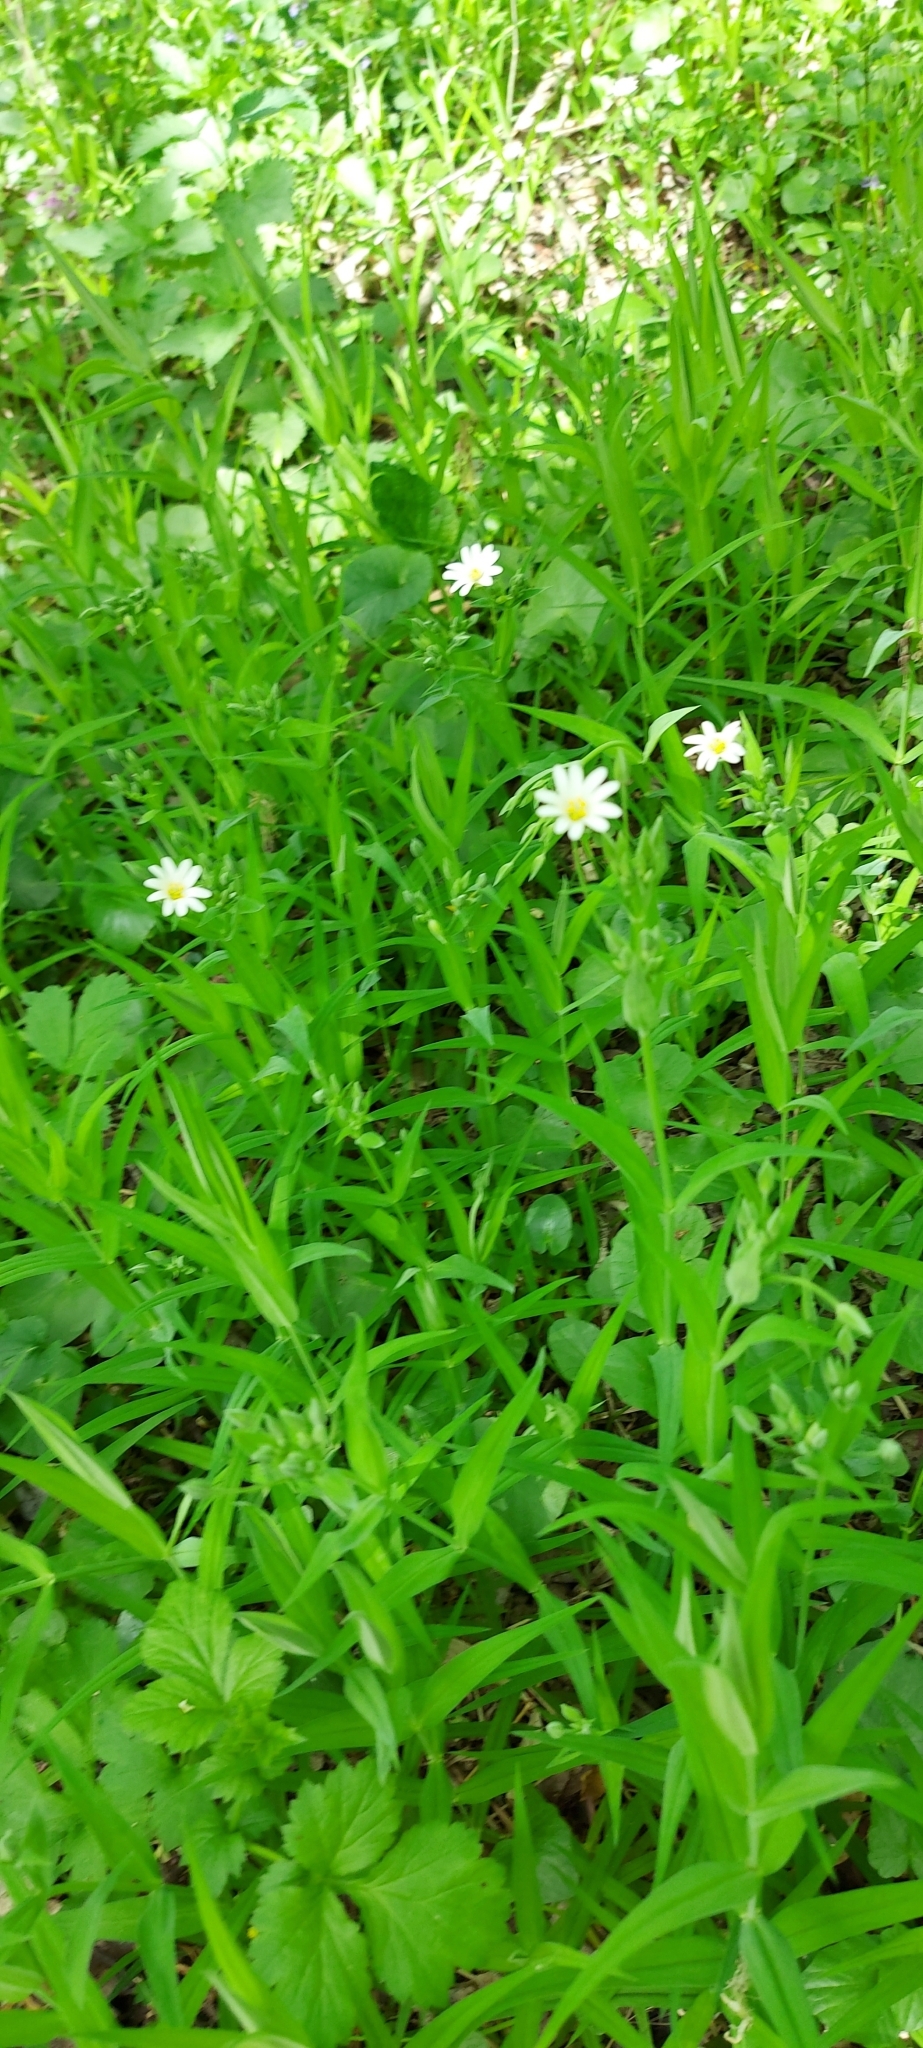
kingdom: Plantae
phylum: Tracheophyta
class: Magnoliopsida
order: Caryophyllales
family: Caryophyllaceae
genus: Rabelera
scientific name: Rabelera holostea
